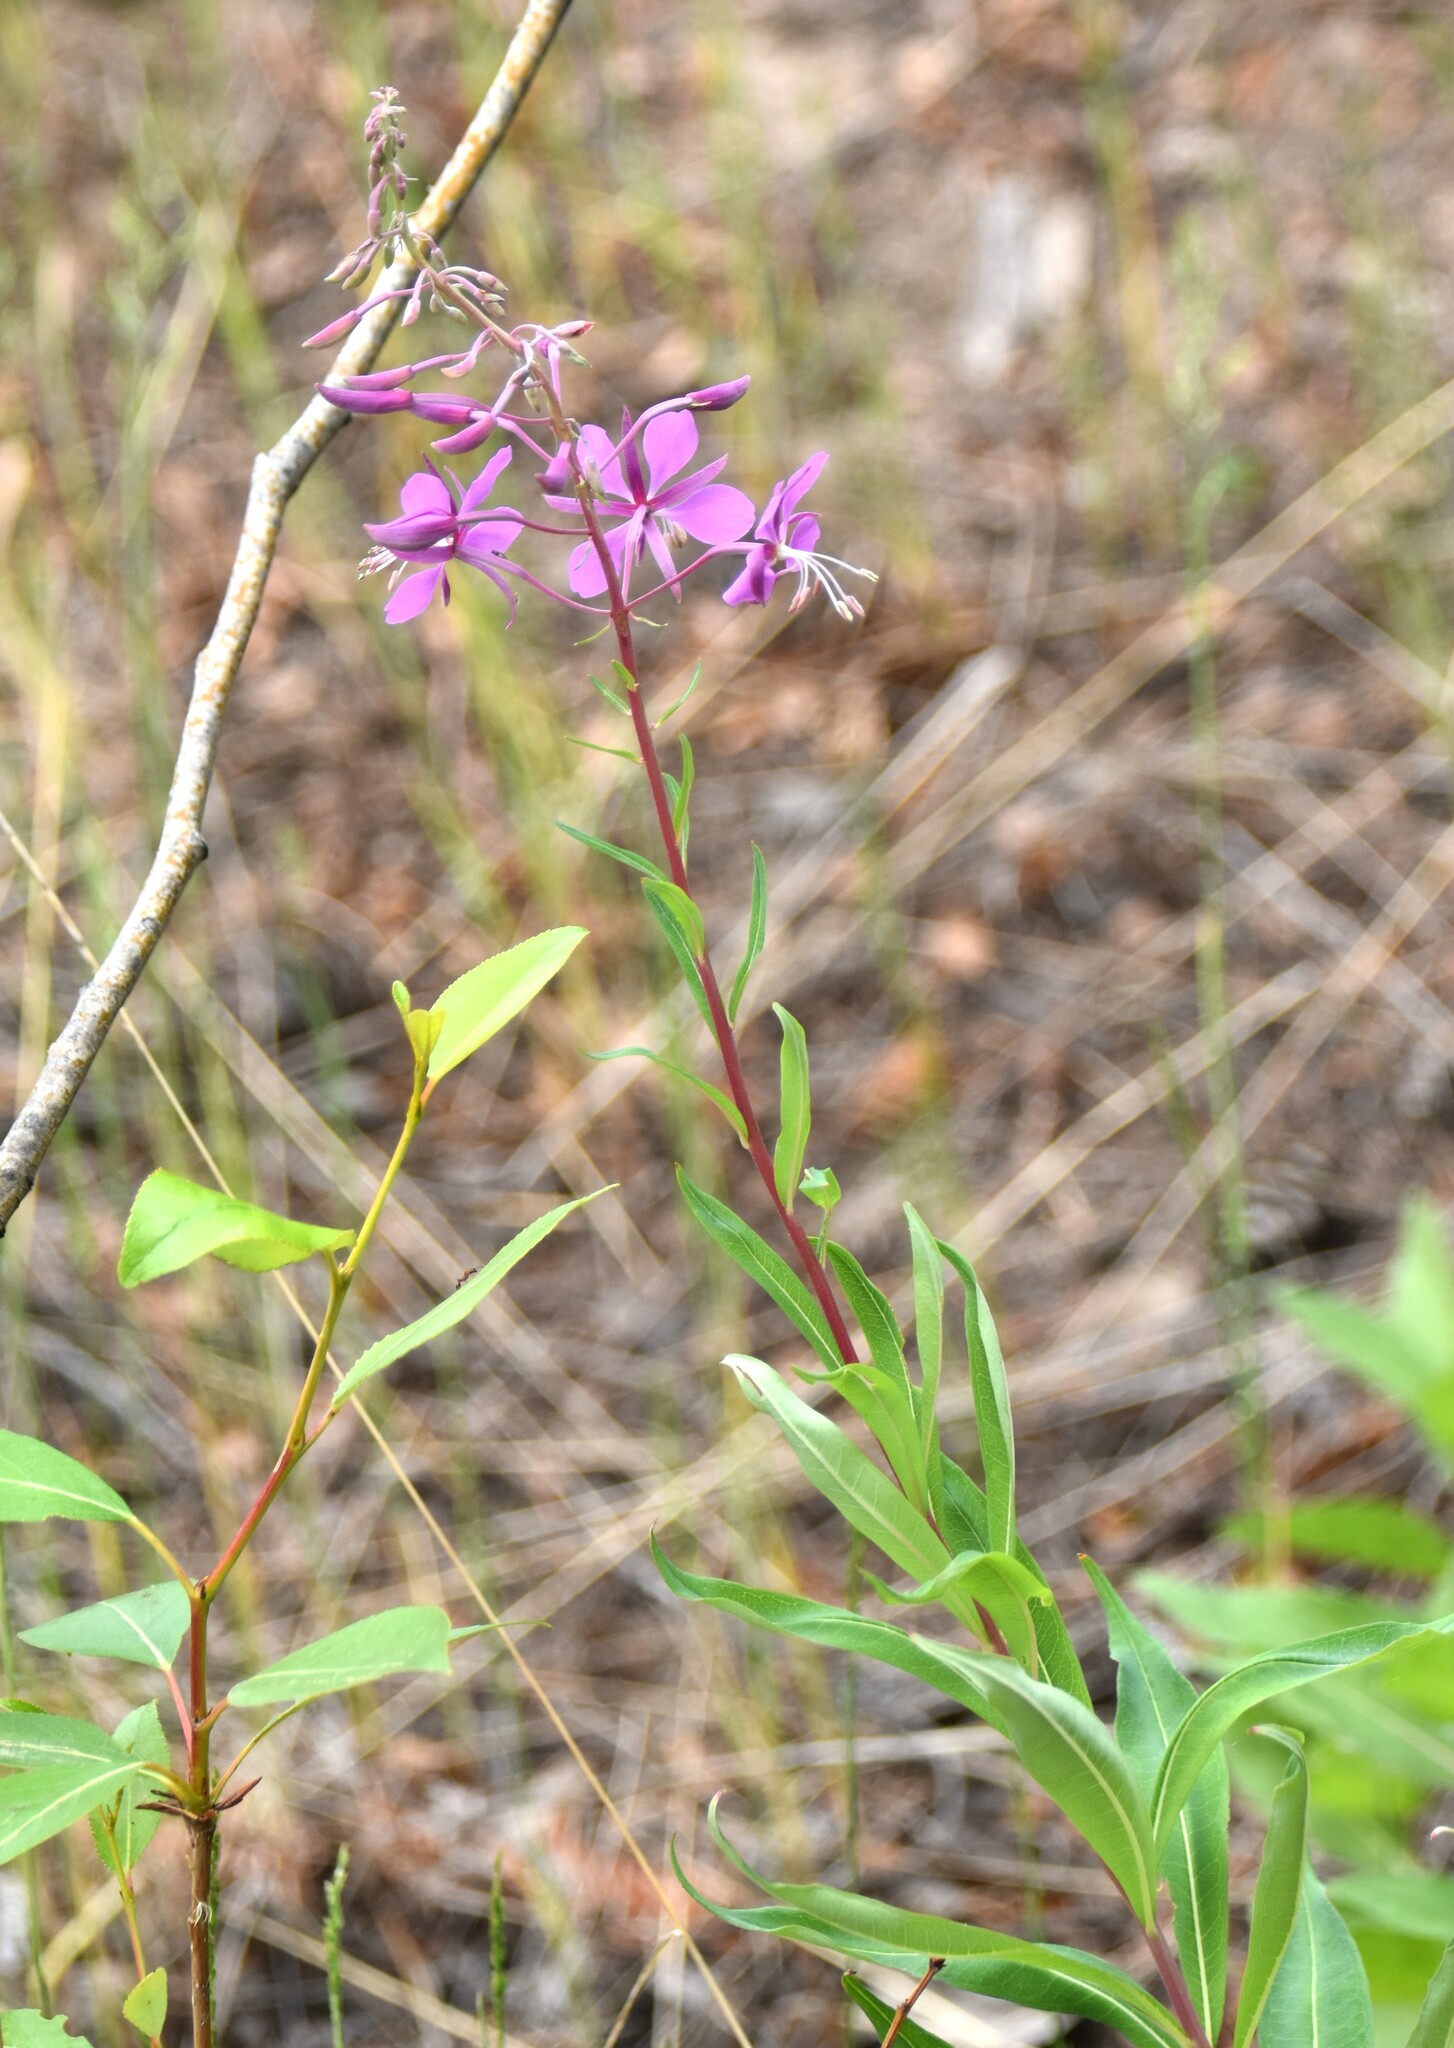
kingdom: Plantae
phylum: Tracheophyta
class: Magnoliopsida
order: Myrtales
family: Onagraceae
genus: Chamaenerion
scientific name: Chamaenerion angustifolium
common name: Fireweed
